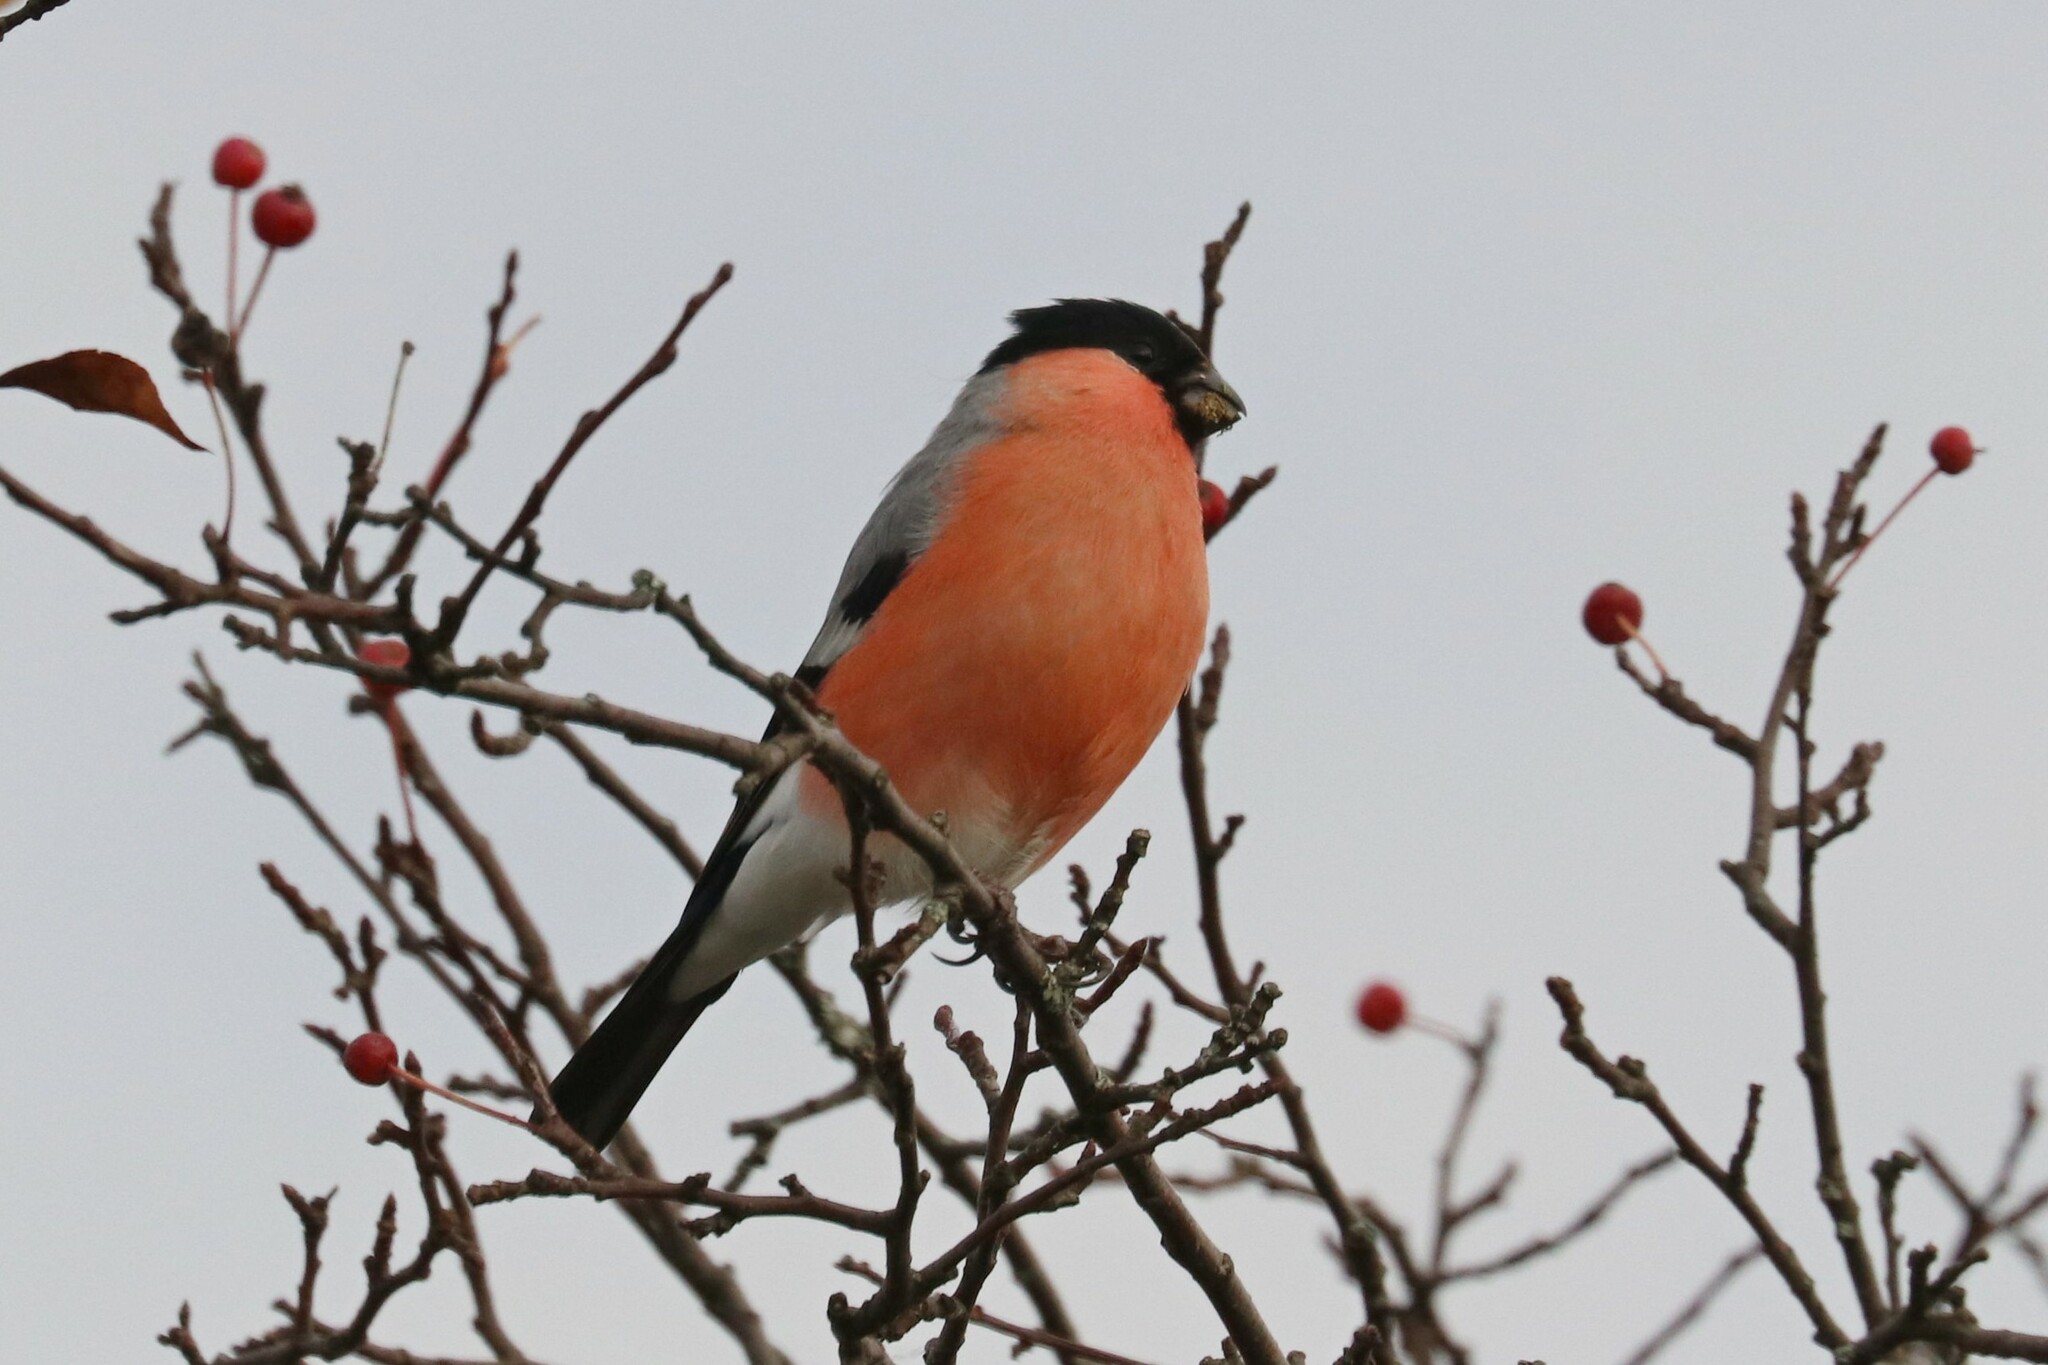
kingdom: Animalia
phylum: Chordata
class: Aves
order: Passeriformes
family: Fringillidae
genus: Pyrrhula
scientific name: Pyrrhula pyrrhula
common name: Eurasian bullfinch
